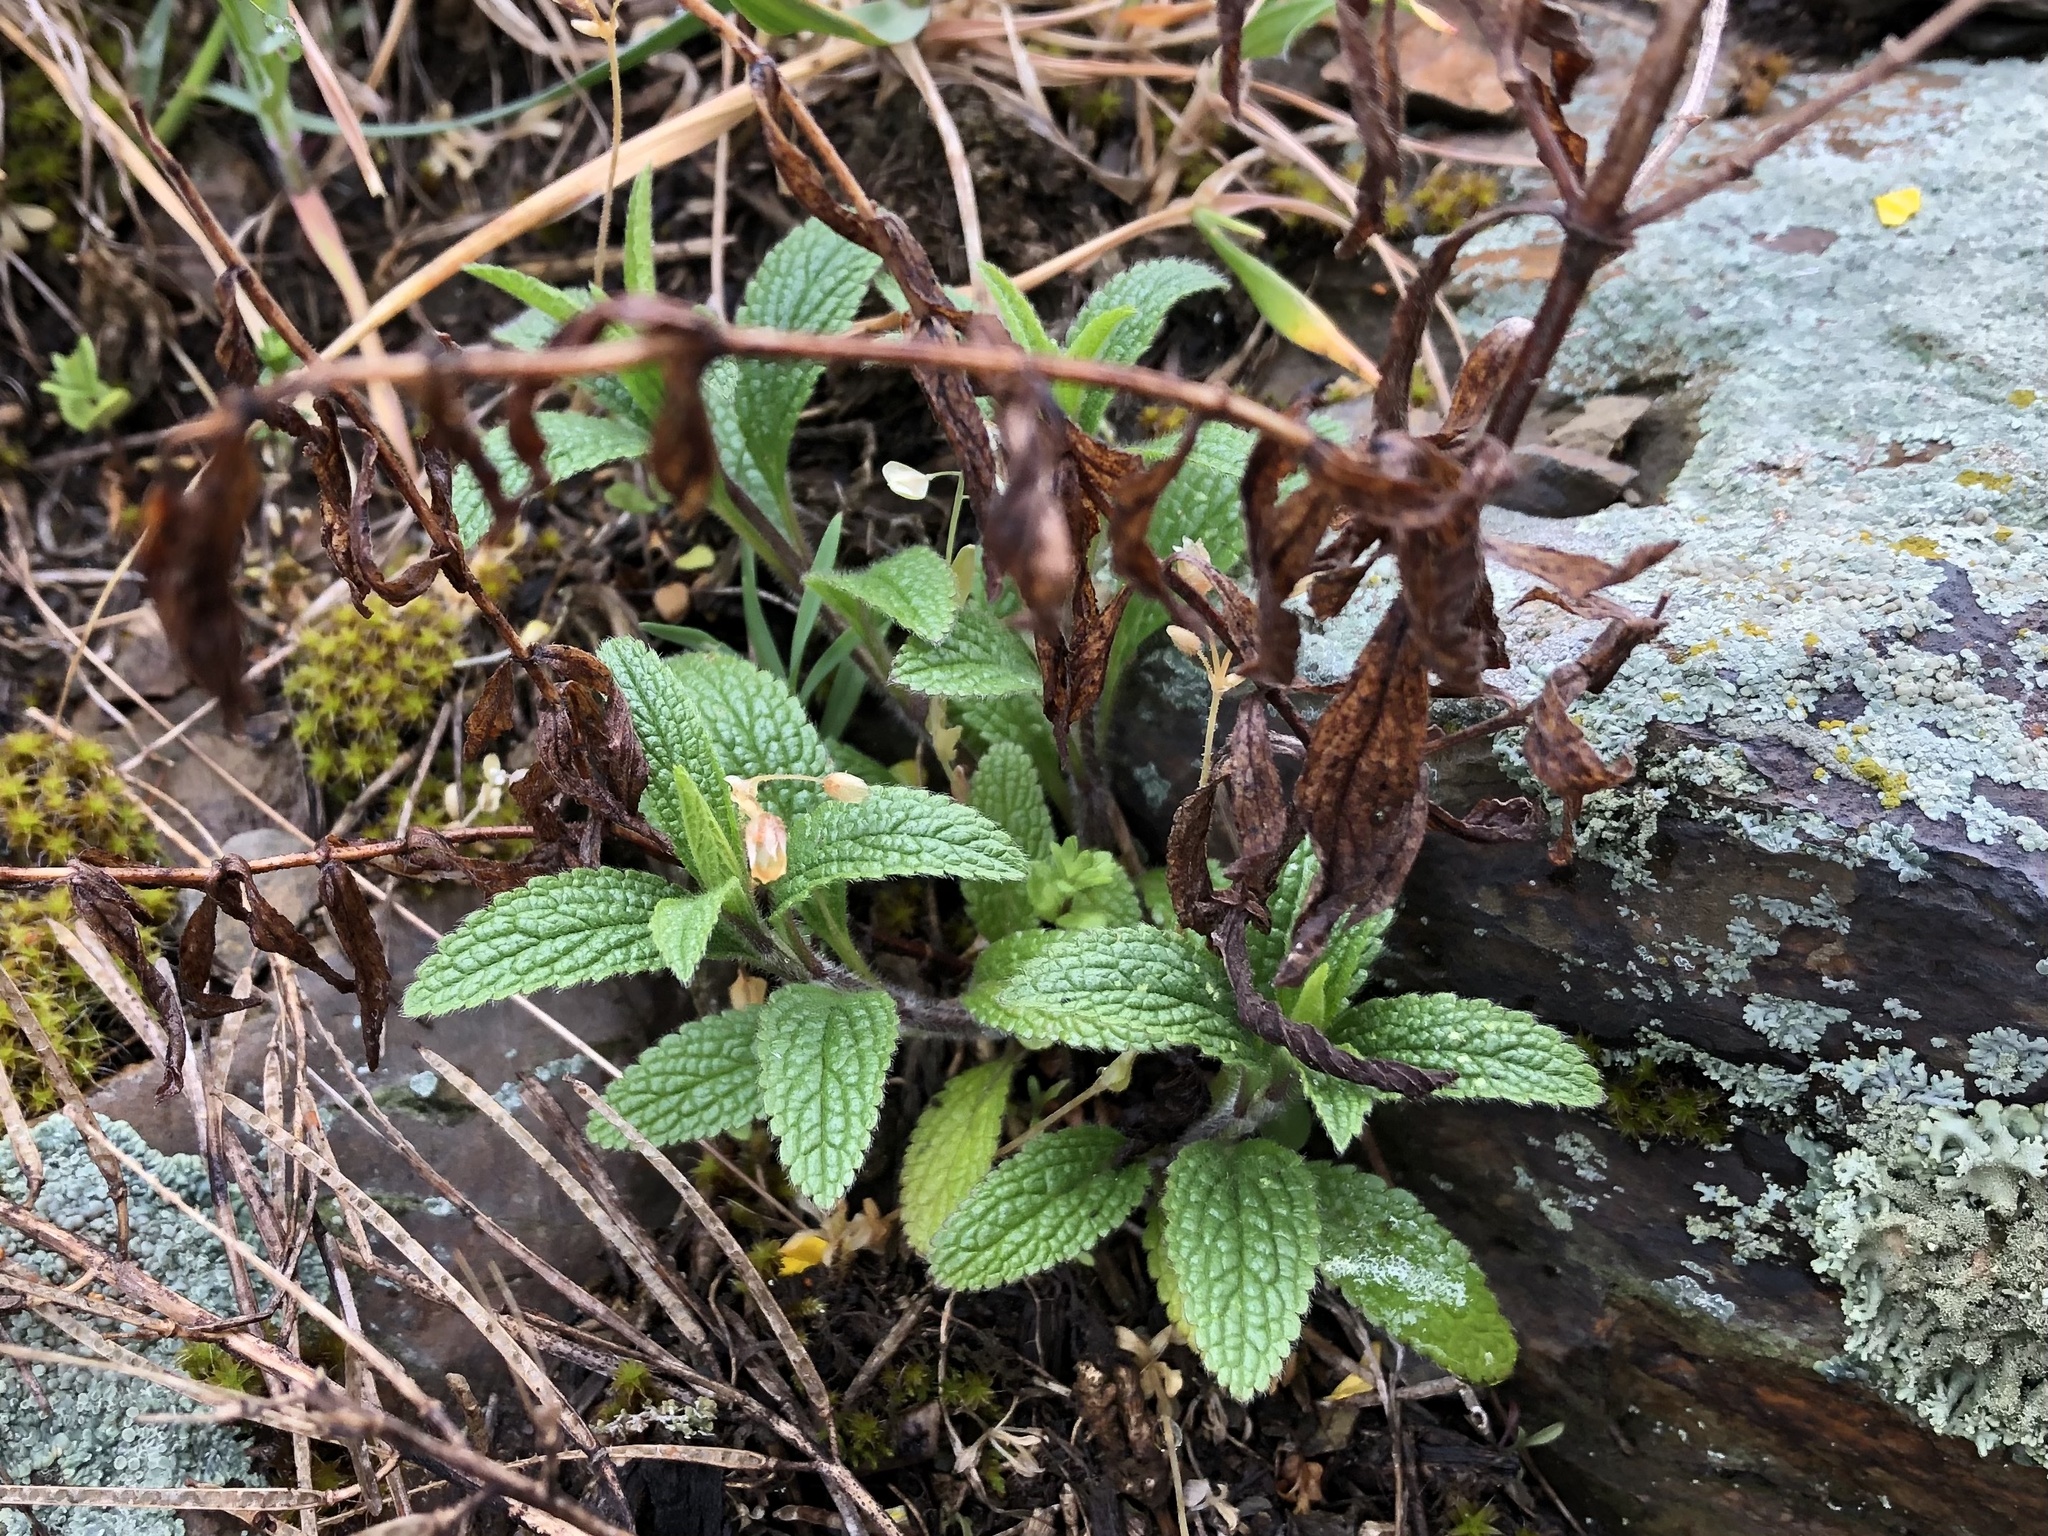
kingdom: Plantae
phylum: Tracheophyta
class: Magnoliopsida
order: Lamiales
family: Lamiaceae
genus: Stachys
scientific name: Stachys recta
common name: Perennial yellow-woundwort
